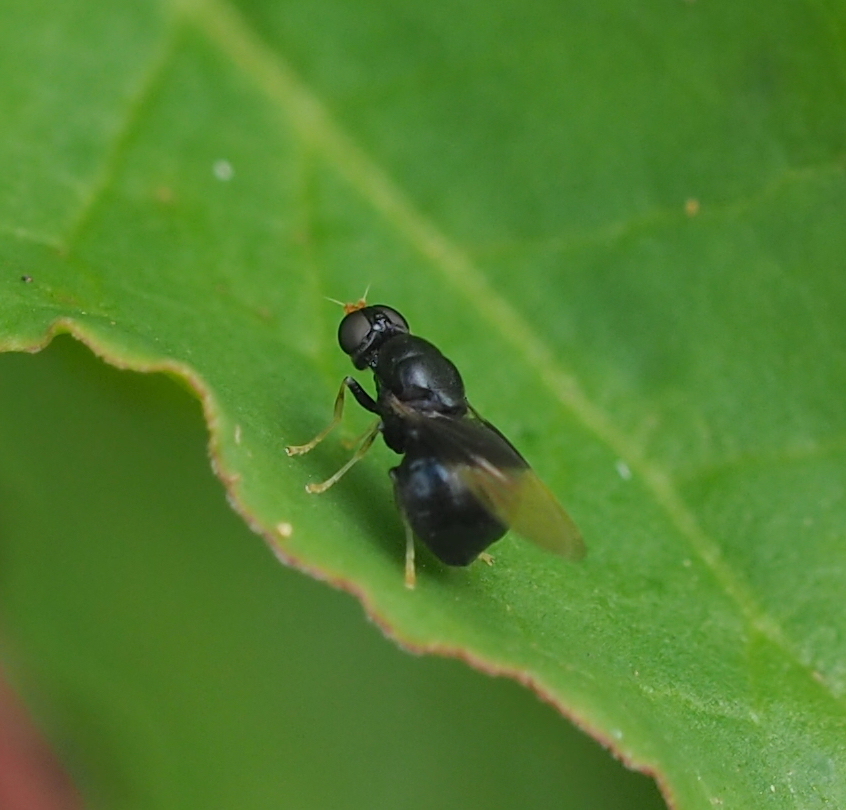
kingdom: Animalia
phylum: Arthropoda
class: Insecta
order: Diptera
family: Stratiomyidae
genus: Pachygaster
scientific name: Pachygaster atra
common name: Dark-winged black
